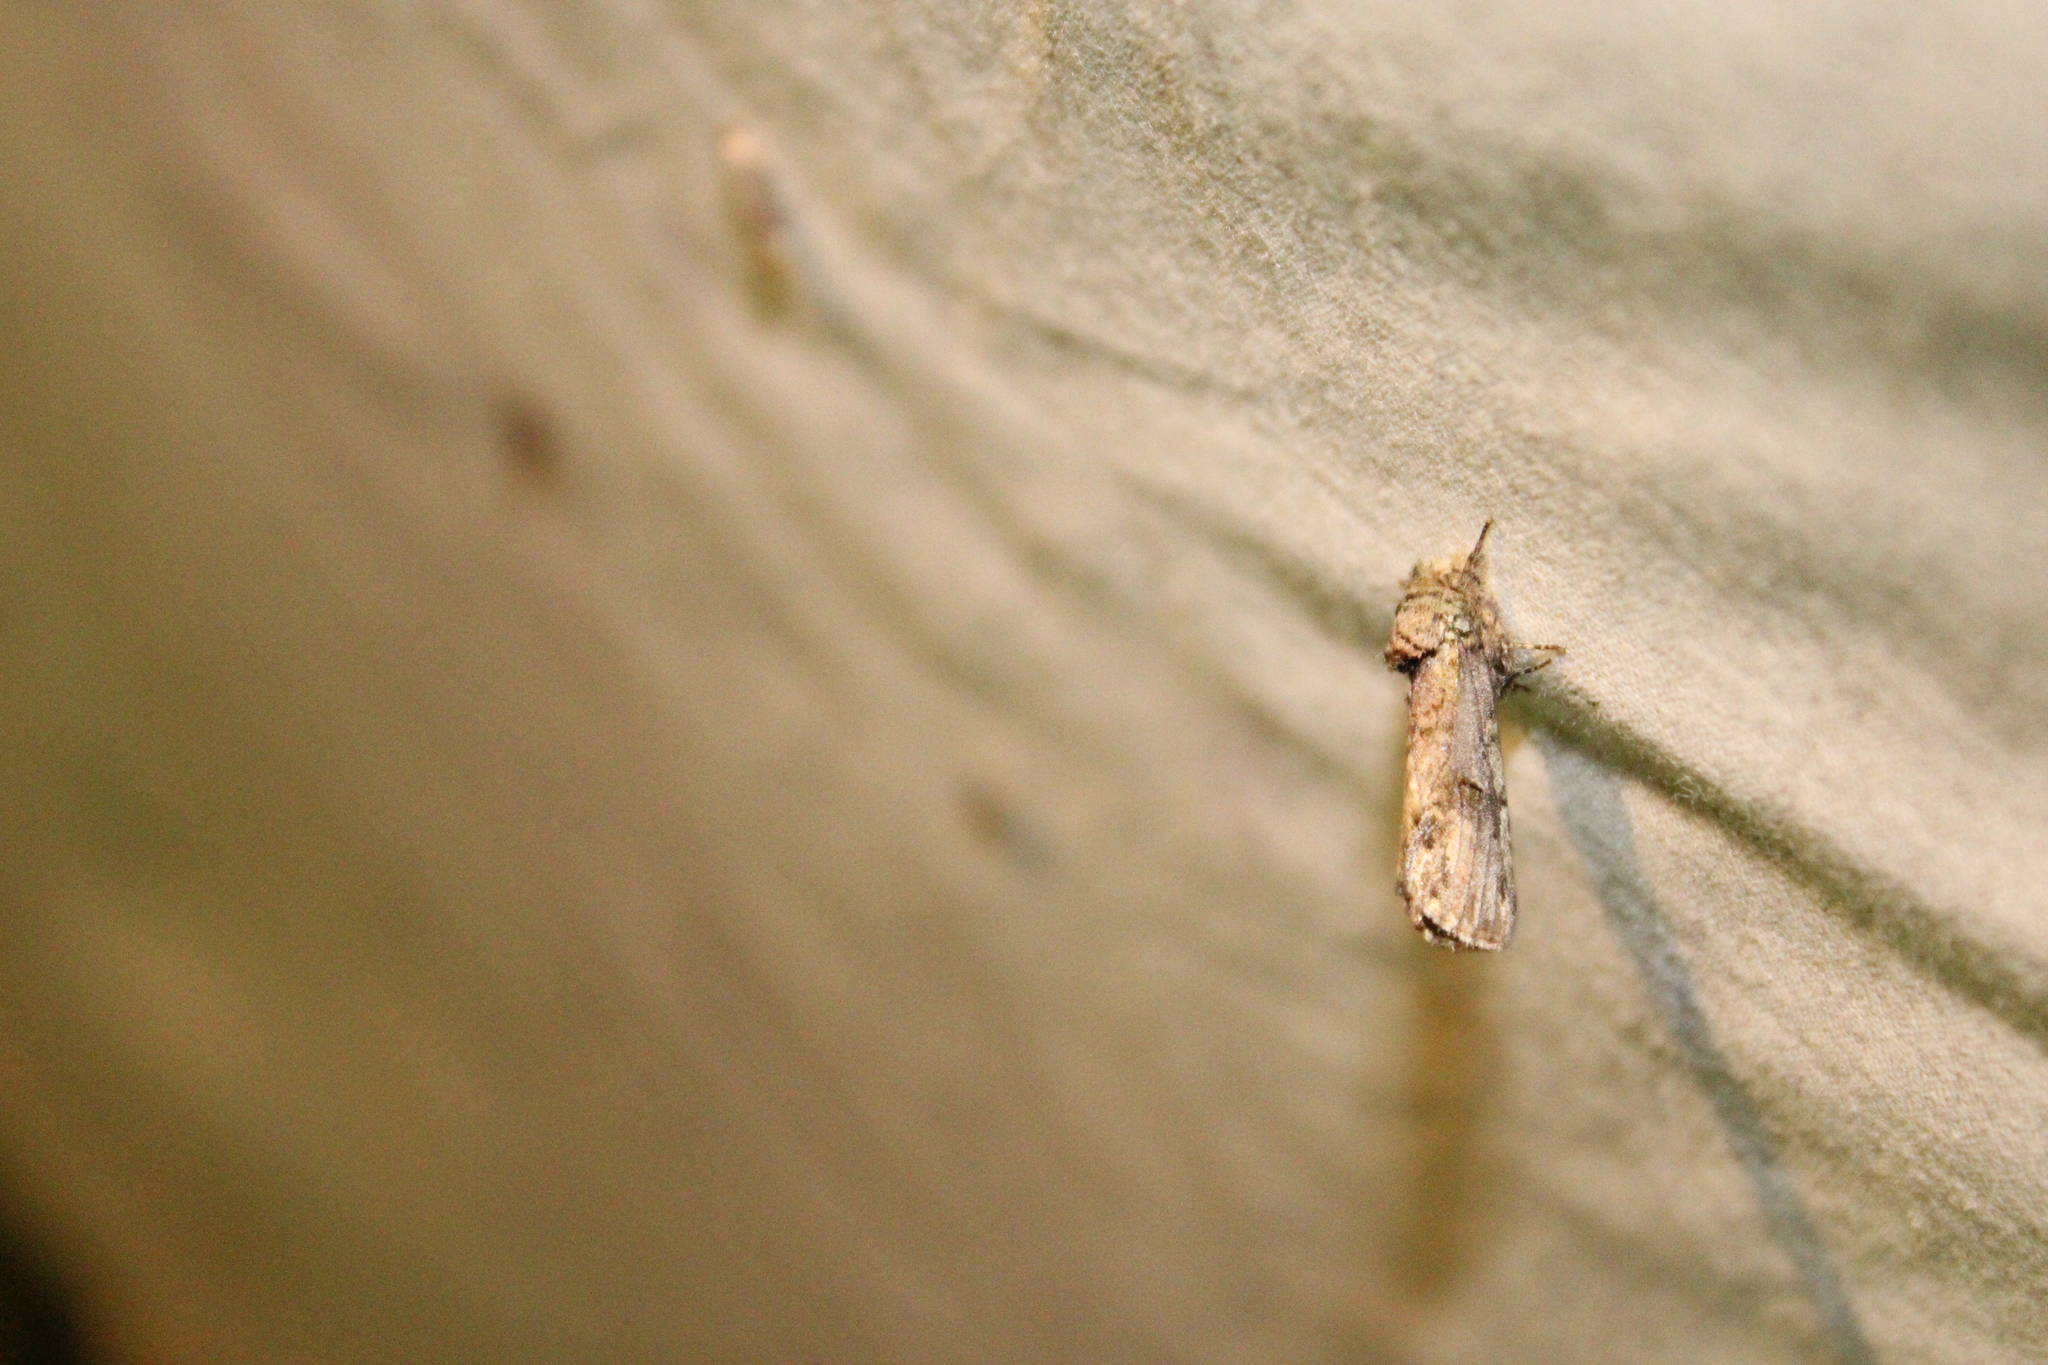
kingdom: Animalia
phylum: Arthropoda
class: Insecta
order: Lepidoptera
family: Notodontidae
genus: Schizura
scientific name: Schizura
